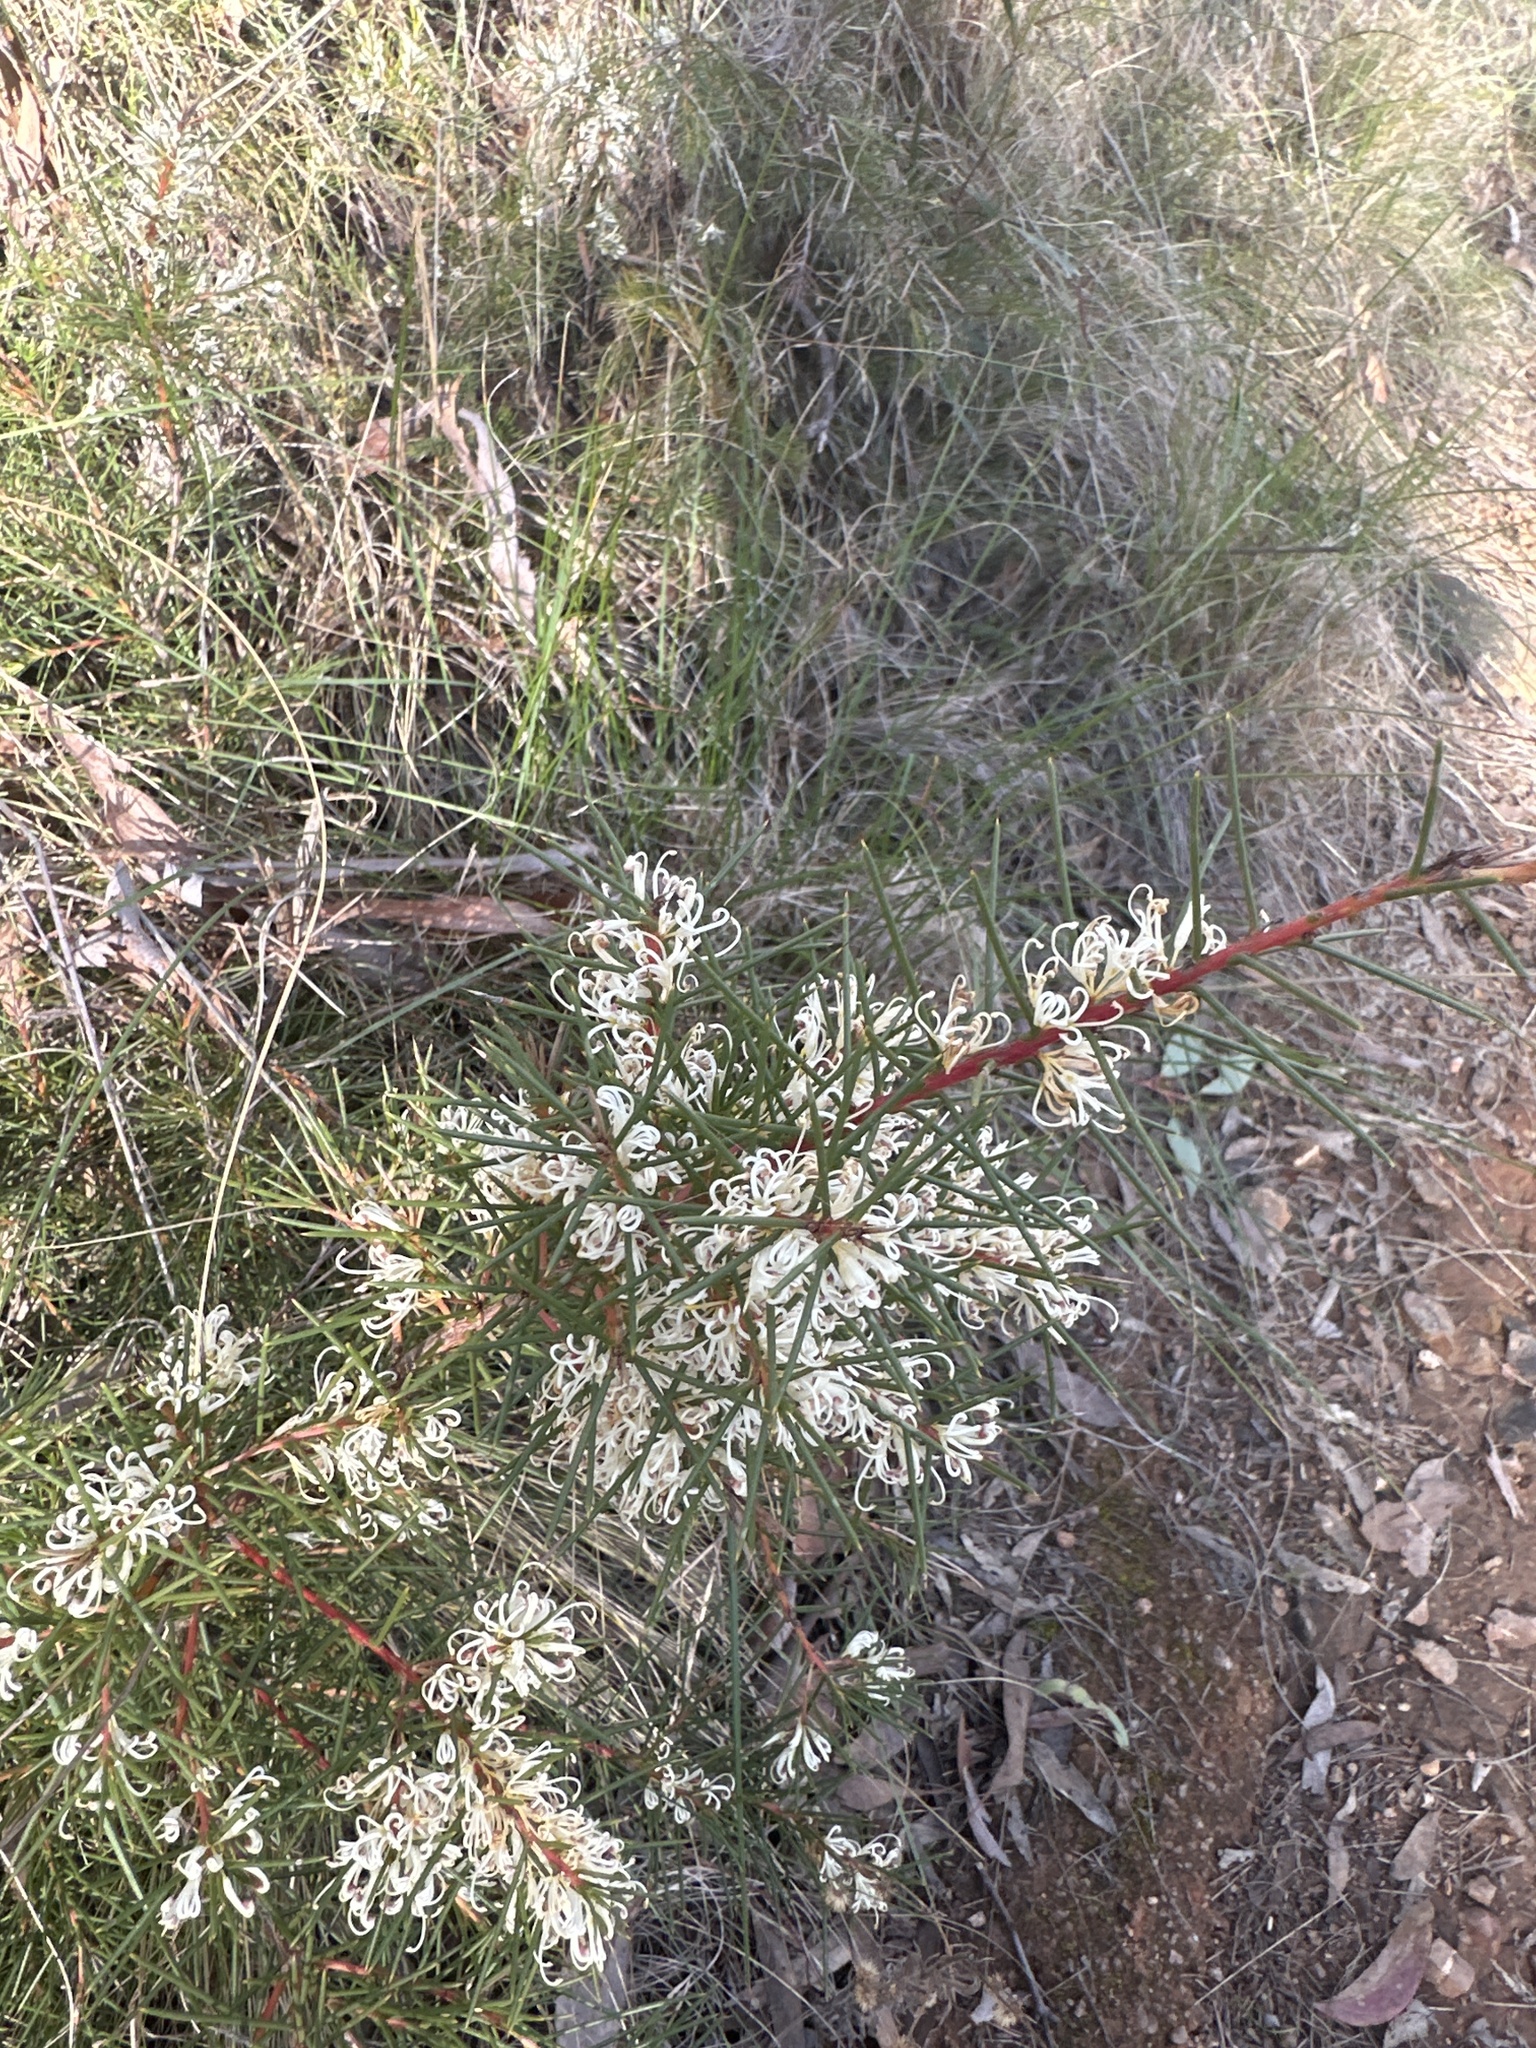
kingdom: Plantae
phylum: Tracheophyta
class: Magnoliopsida
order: Proteales
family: Proteaceae
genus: Hakea
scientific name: Hakea decurrens
